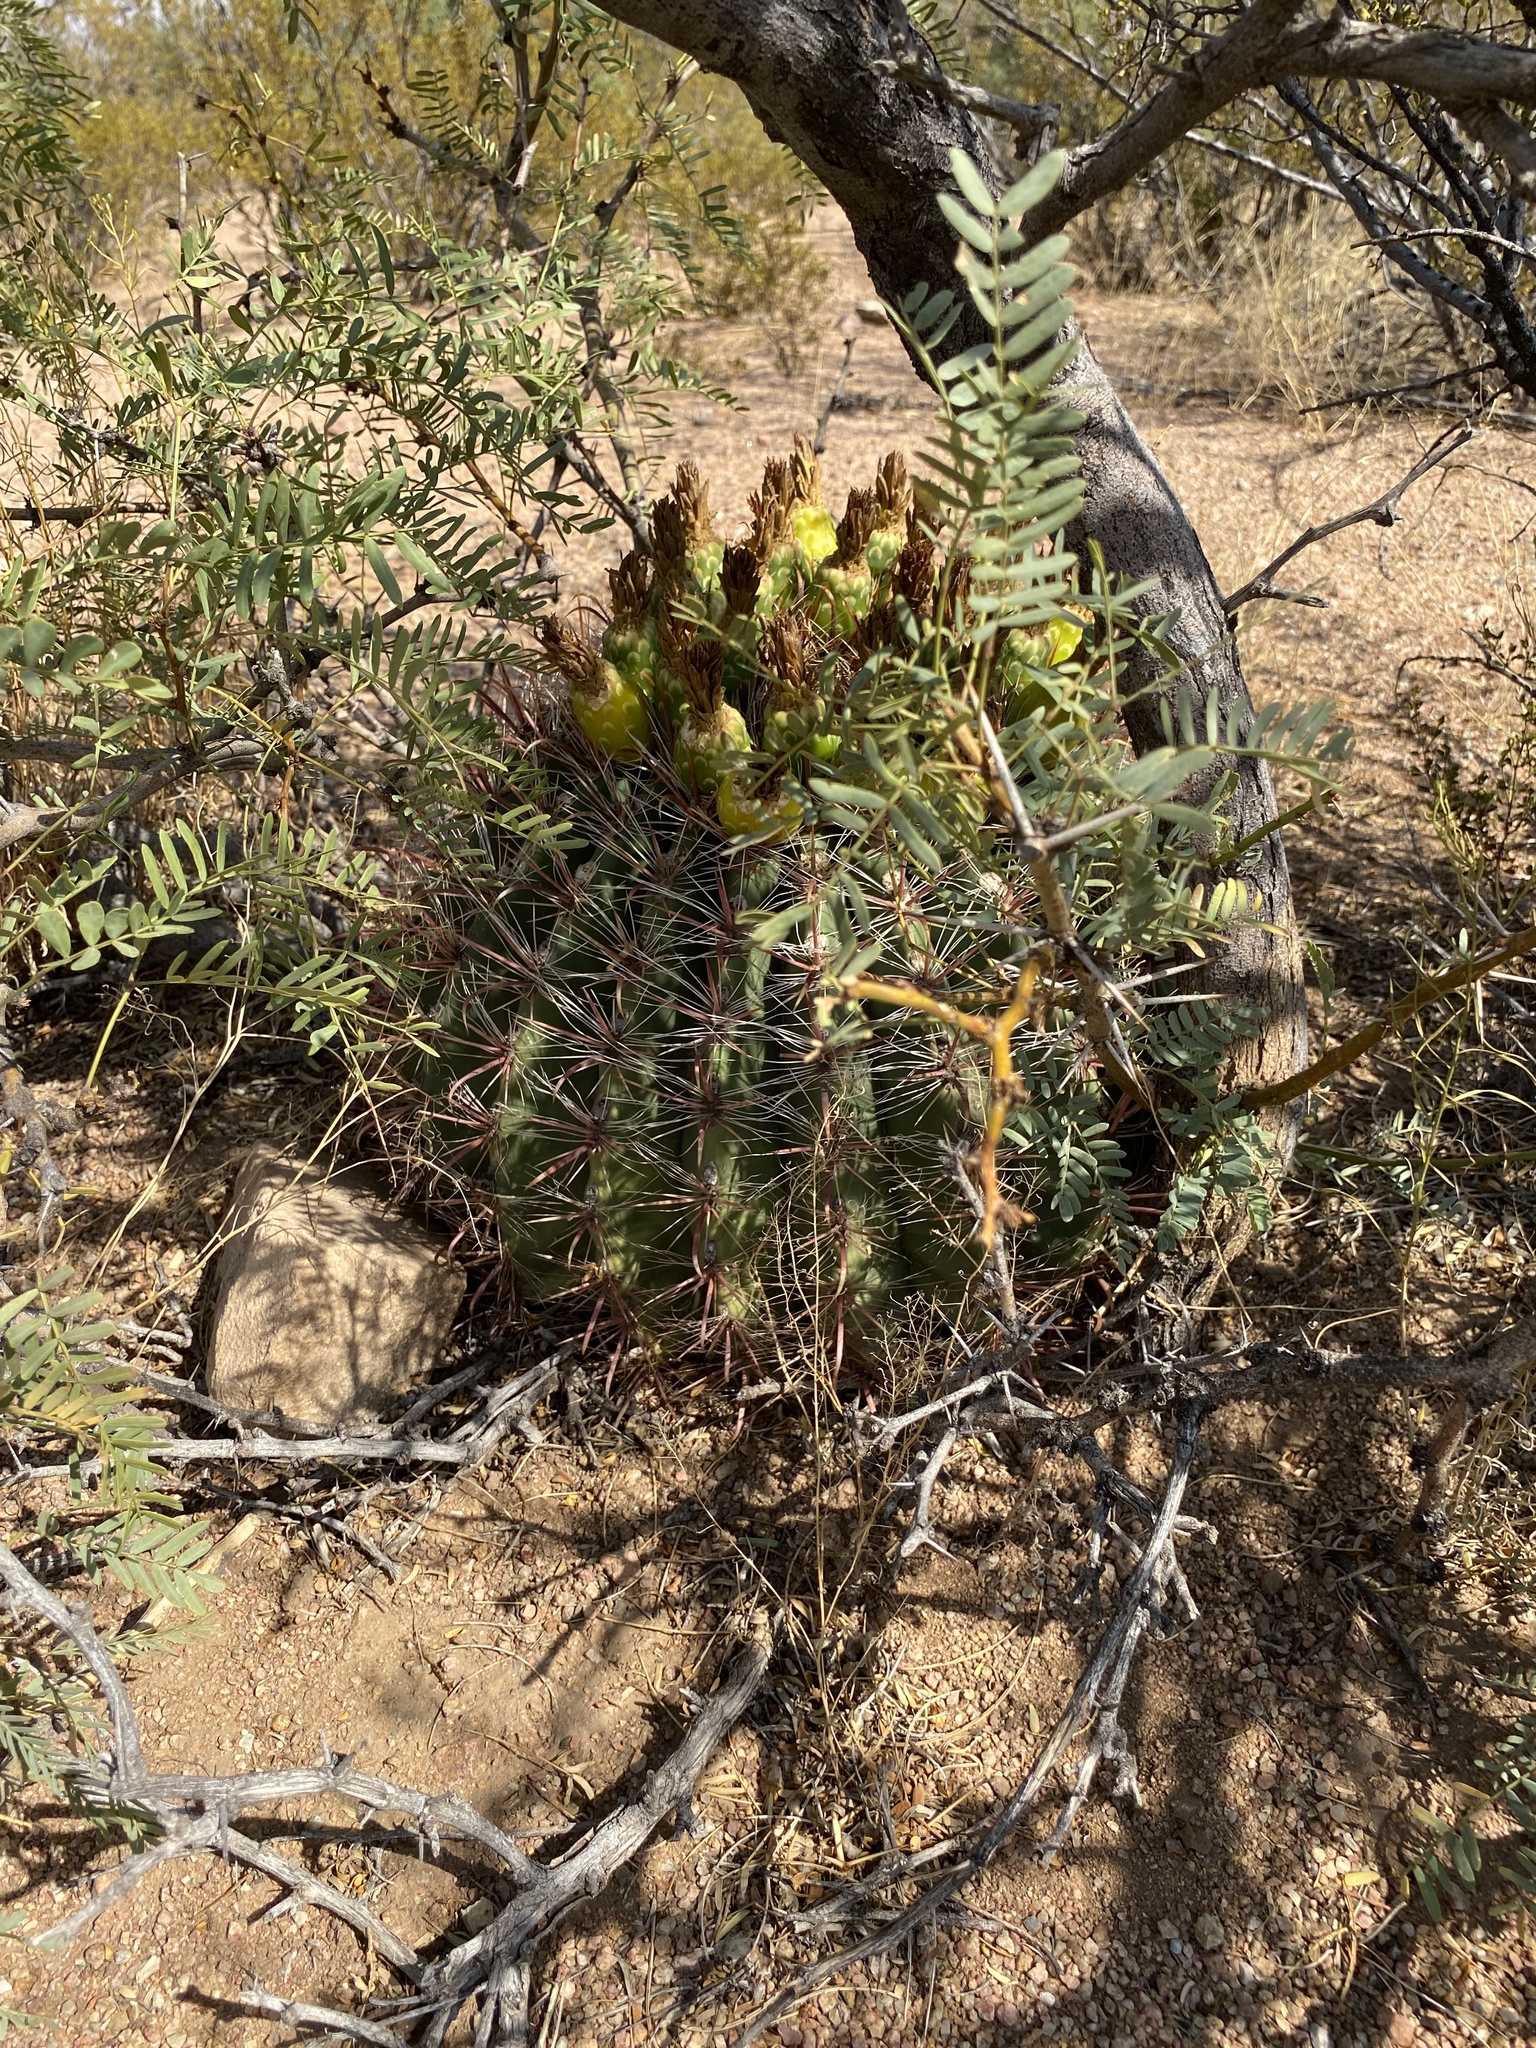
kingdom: Plantae
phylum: Tracheophyta
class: Magnoliopsida
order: Caryophyllales
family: Cactaceae
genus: Ferocactus
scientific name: Ferocactus wislizeni
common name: Candy barrel cactus
